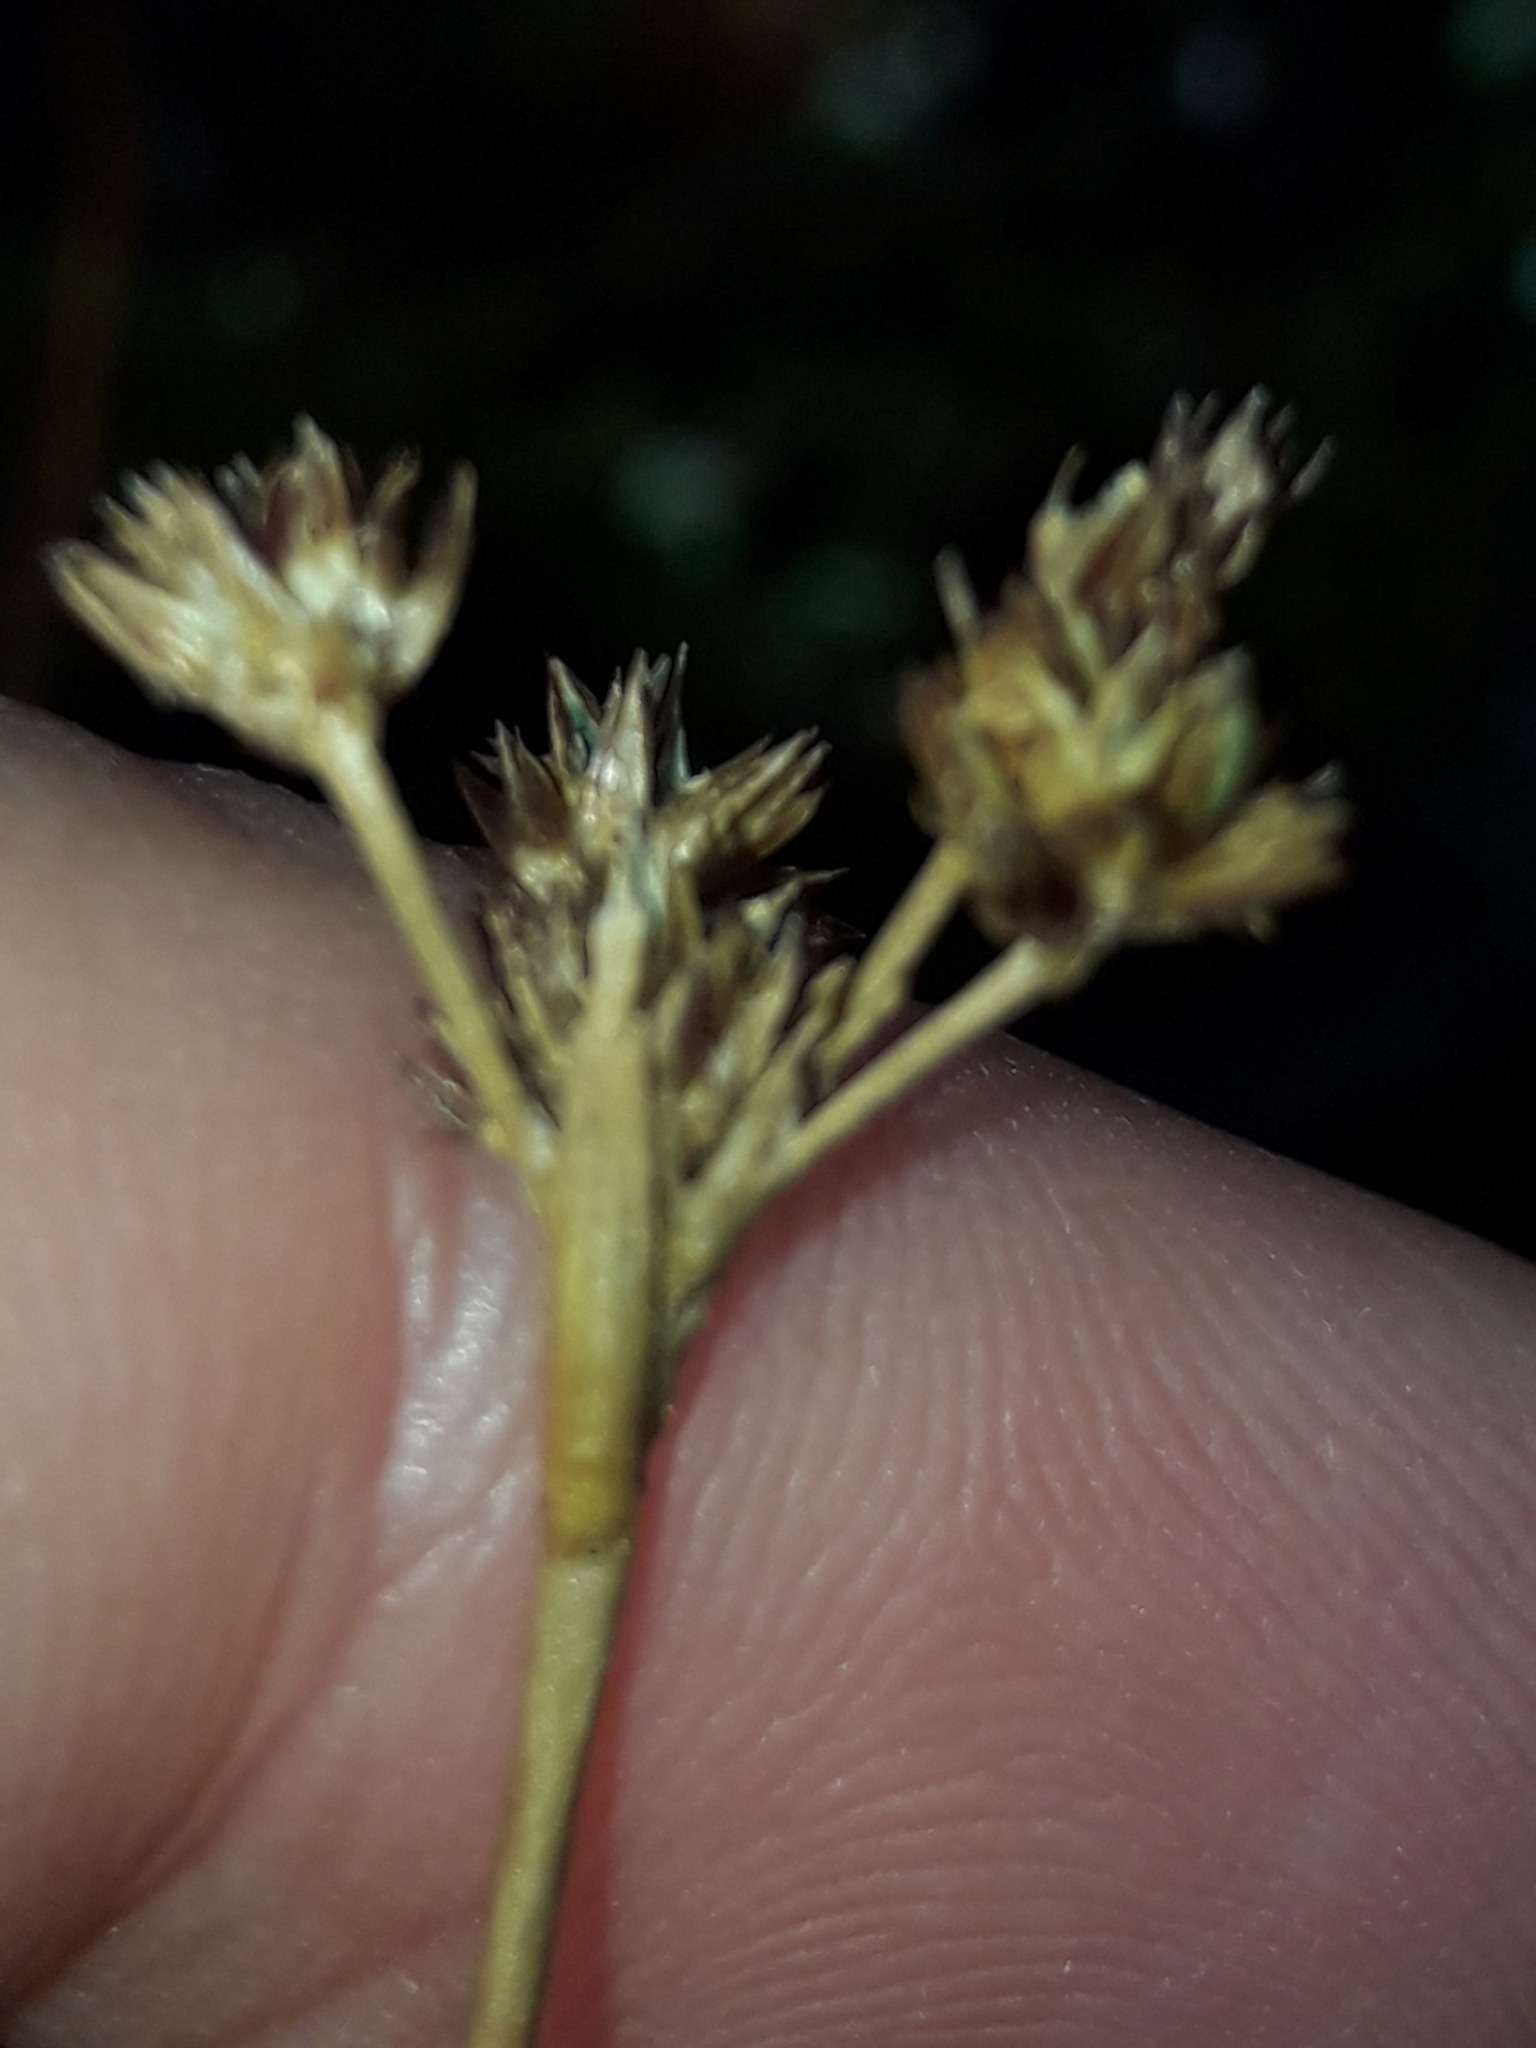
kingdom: Plantae
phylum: Tracheophyta
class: Liliopsida
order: Poales
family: Juncaceae
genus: Juncus
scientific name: Juncus planifolius
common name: Broadleaf rush
